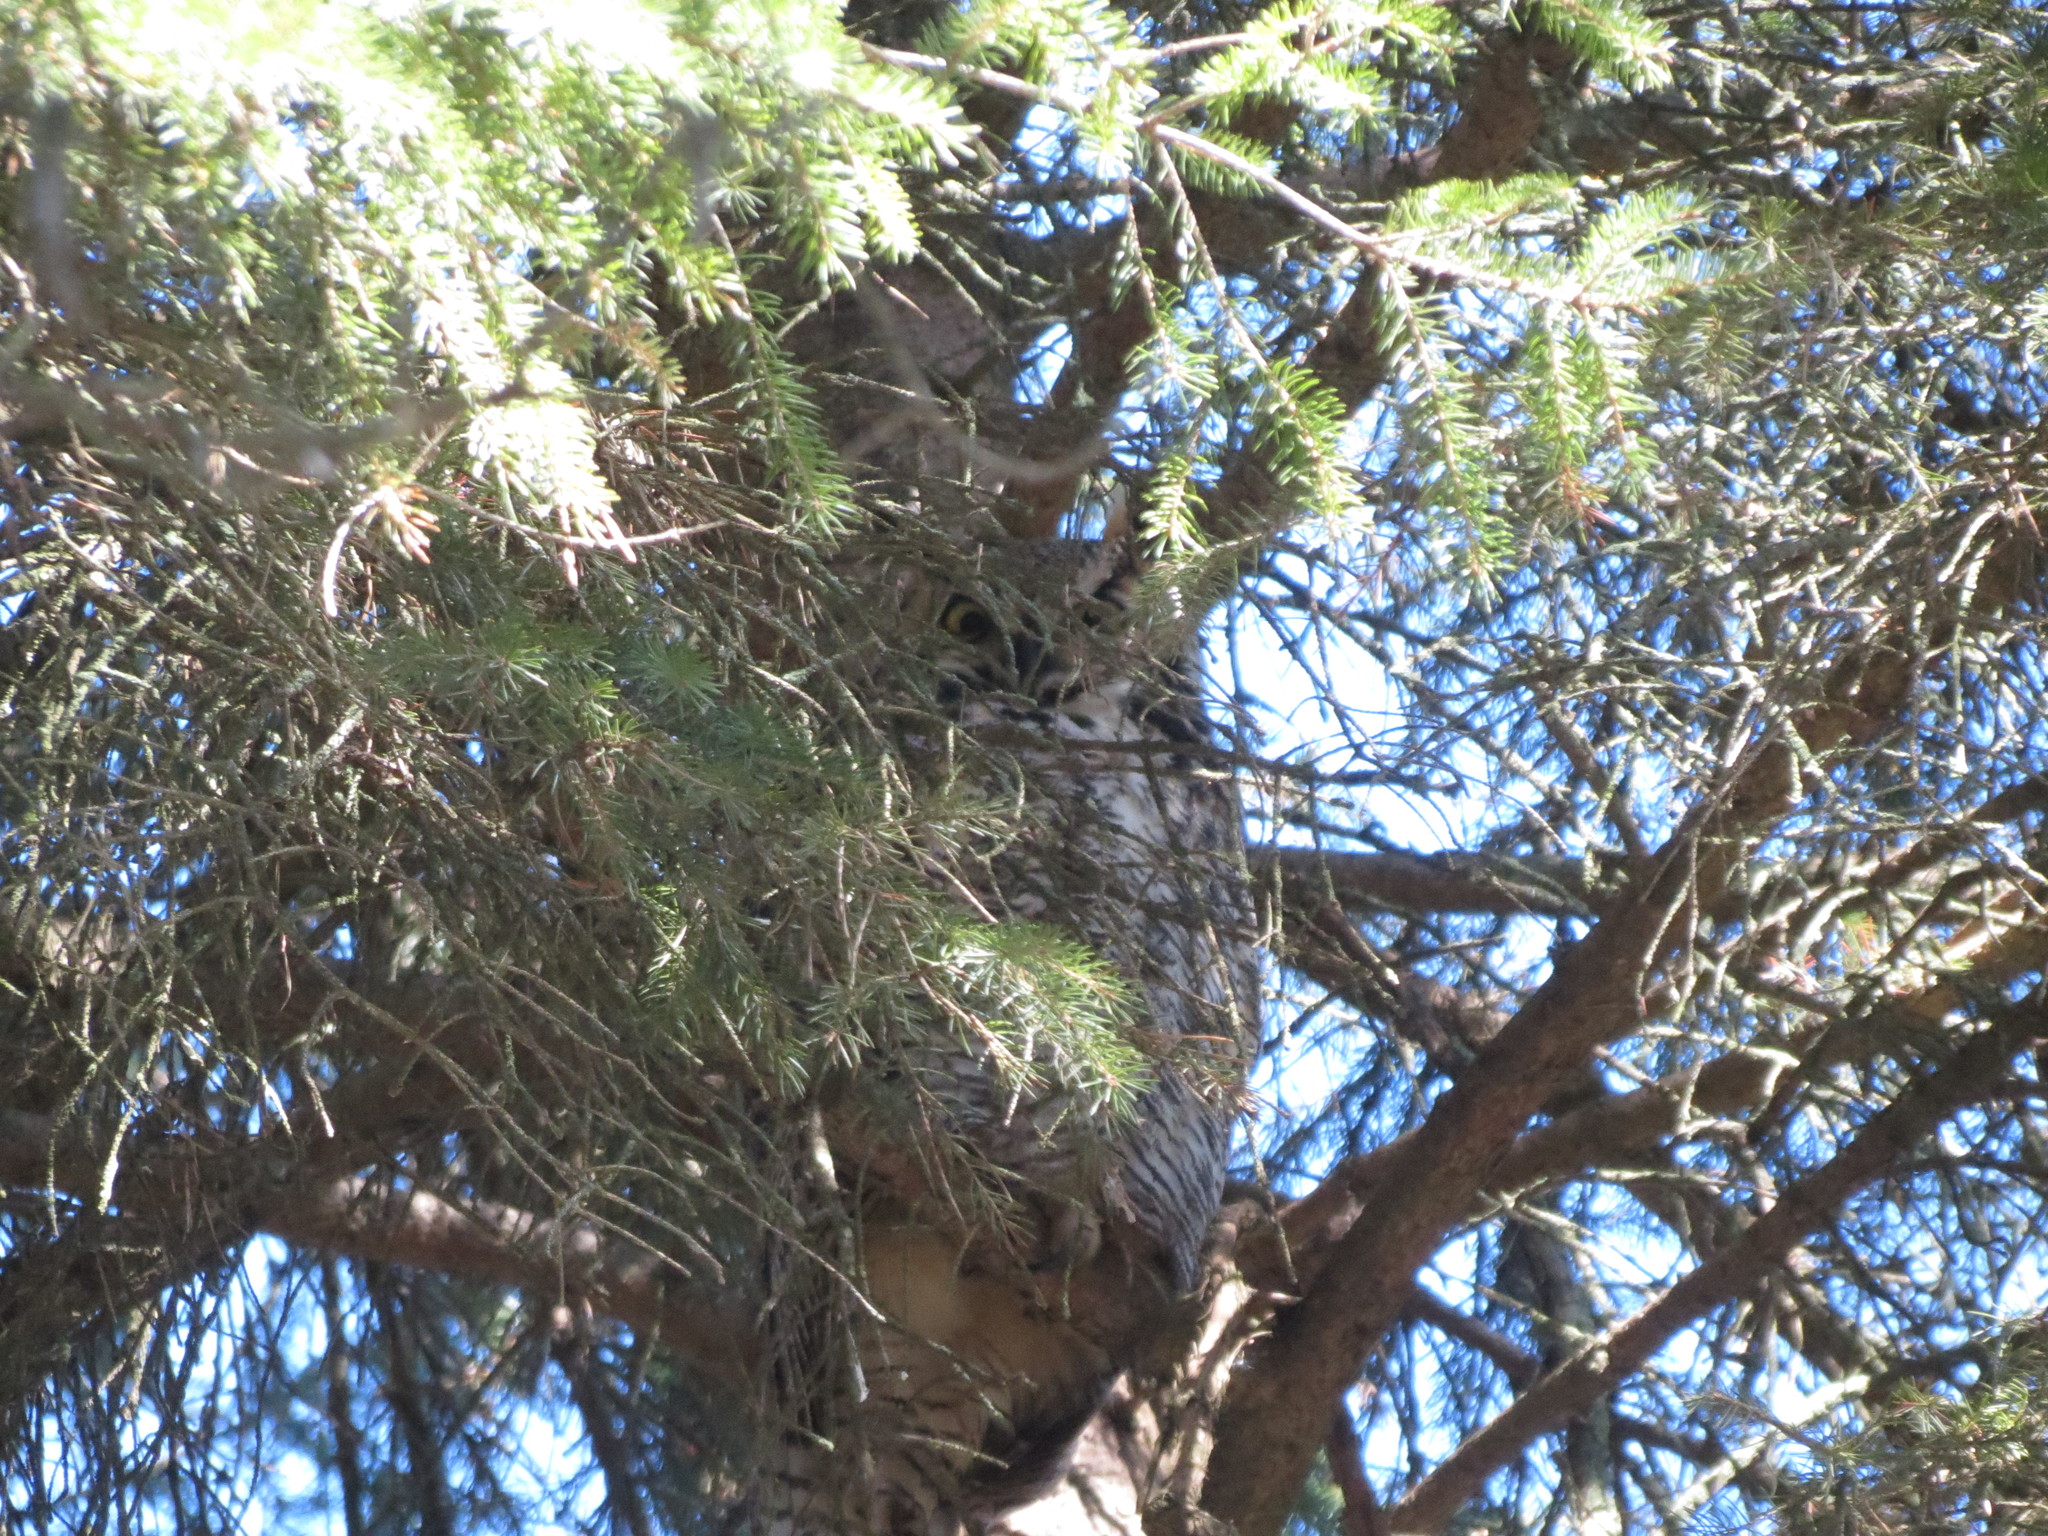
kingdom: Animalia
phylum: Chordata
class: Aves
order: Strigiformes
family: Strigidae
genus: Bubo
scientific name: Bubo virginianus
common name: Great horned owl
